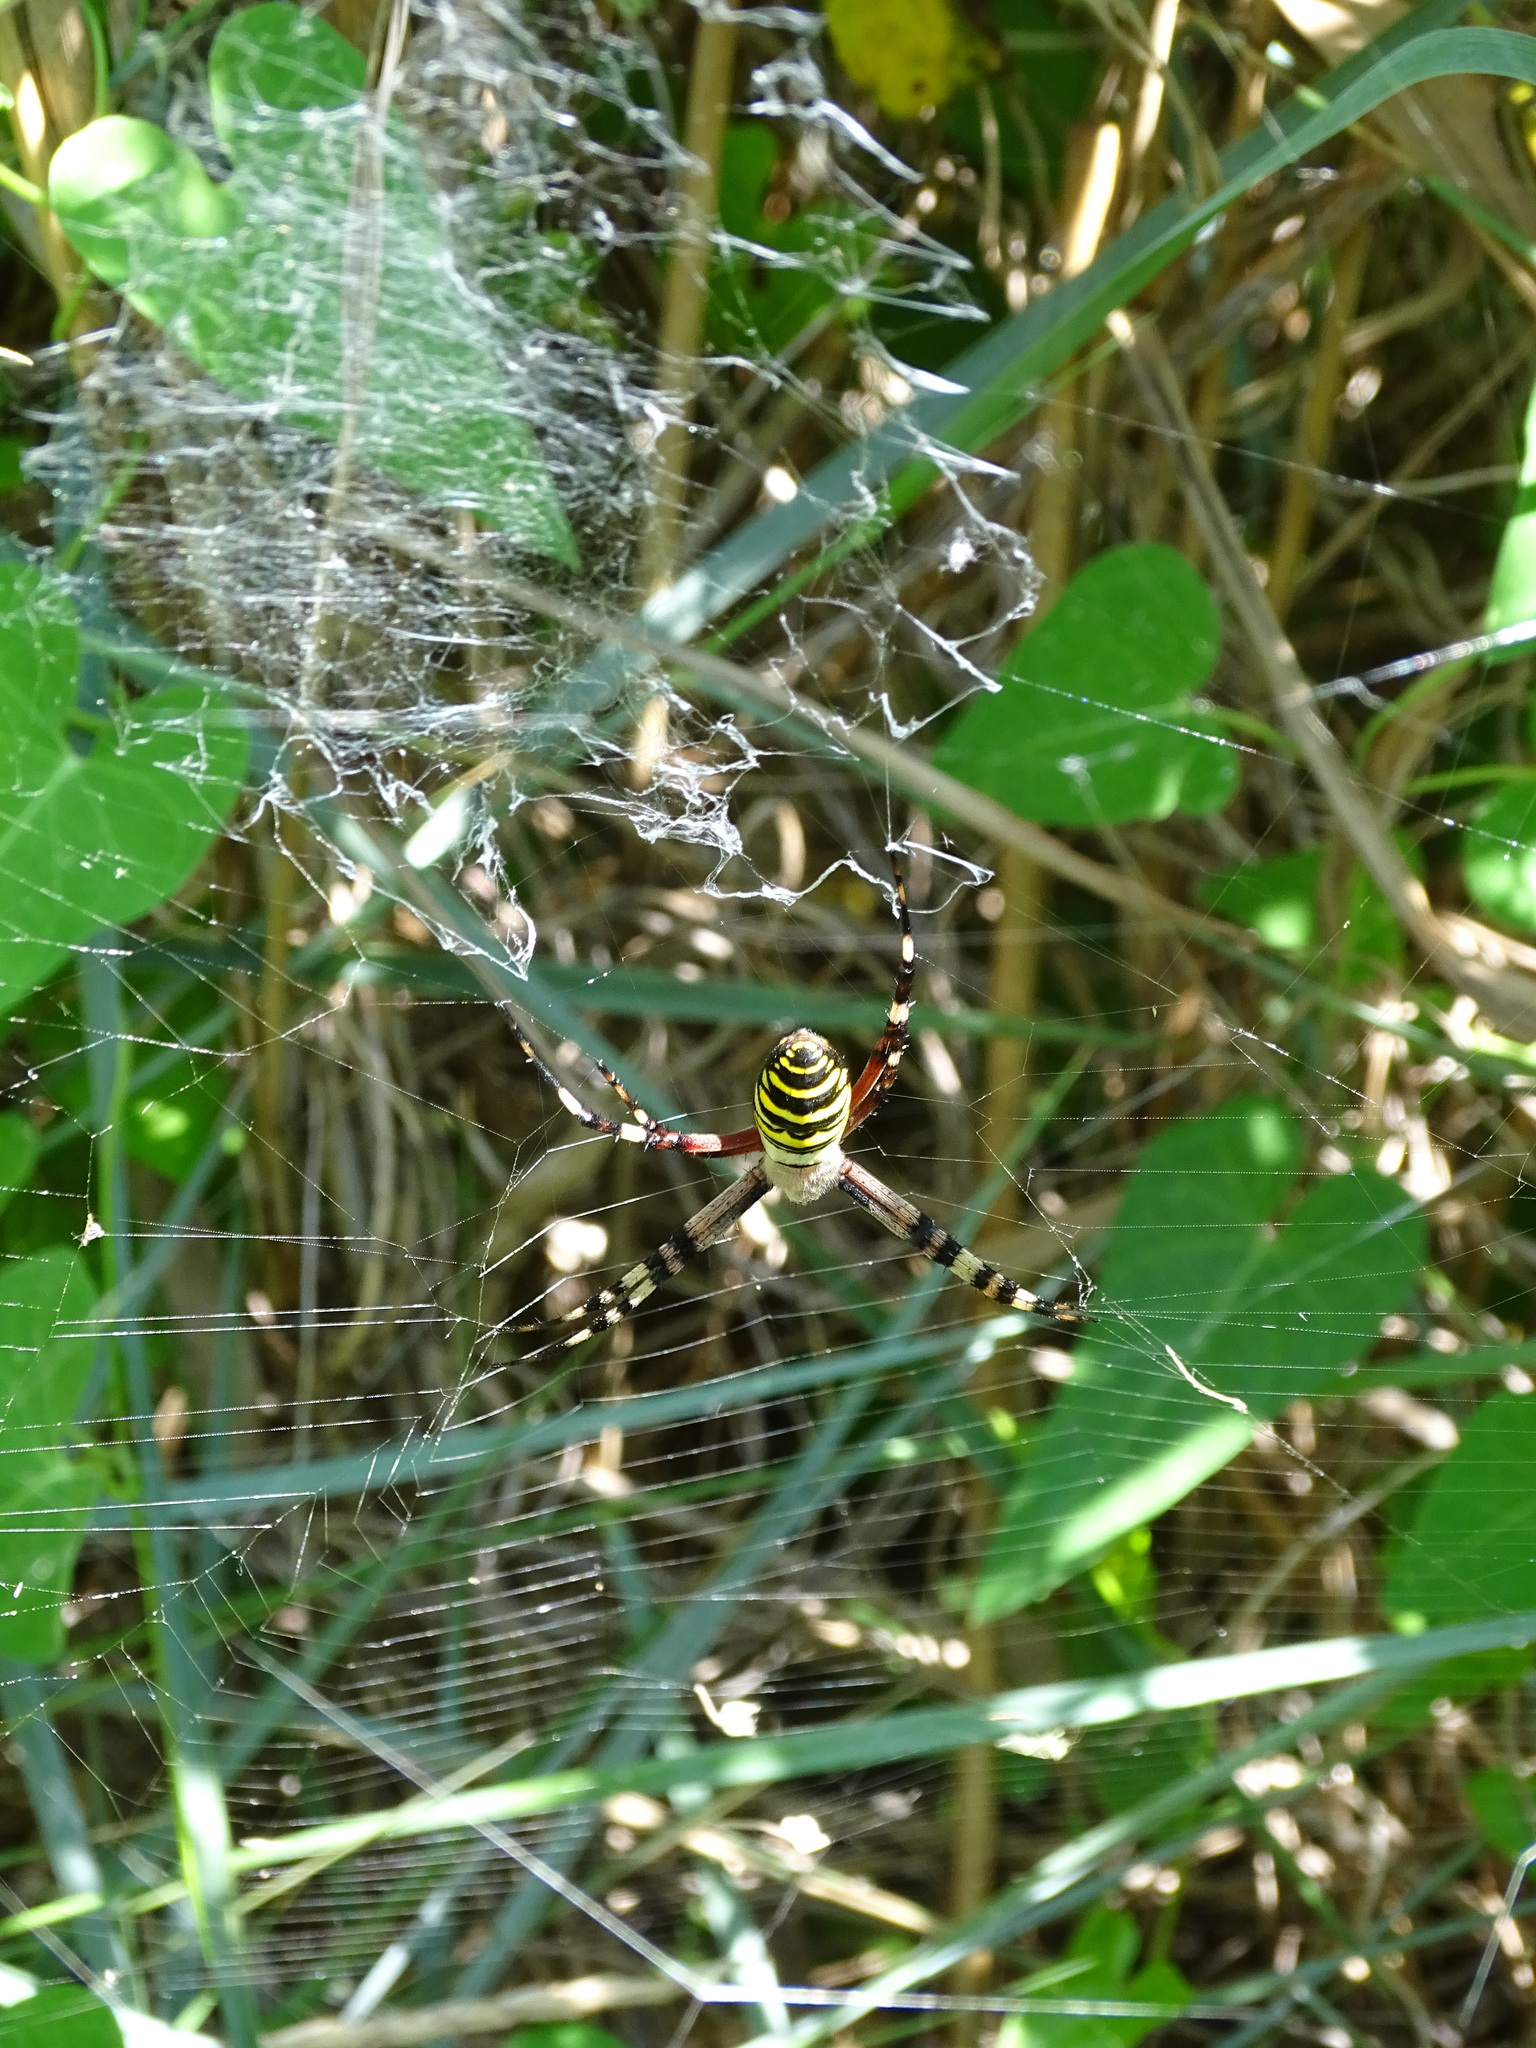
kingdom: Animalia
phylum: Arthropoda
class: Arachnida
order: Araneae
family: Araneidae
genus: Argiope
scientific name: Argiope bruennichi
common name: Wasp spider
